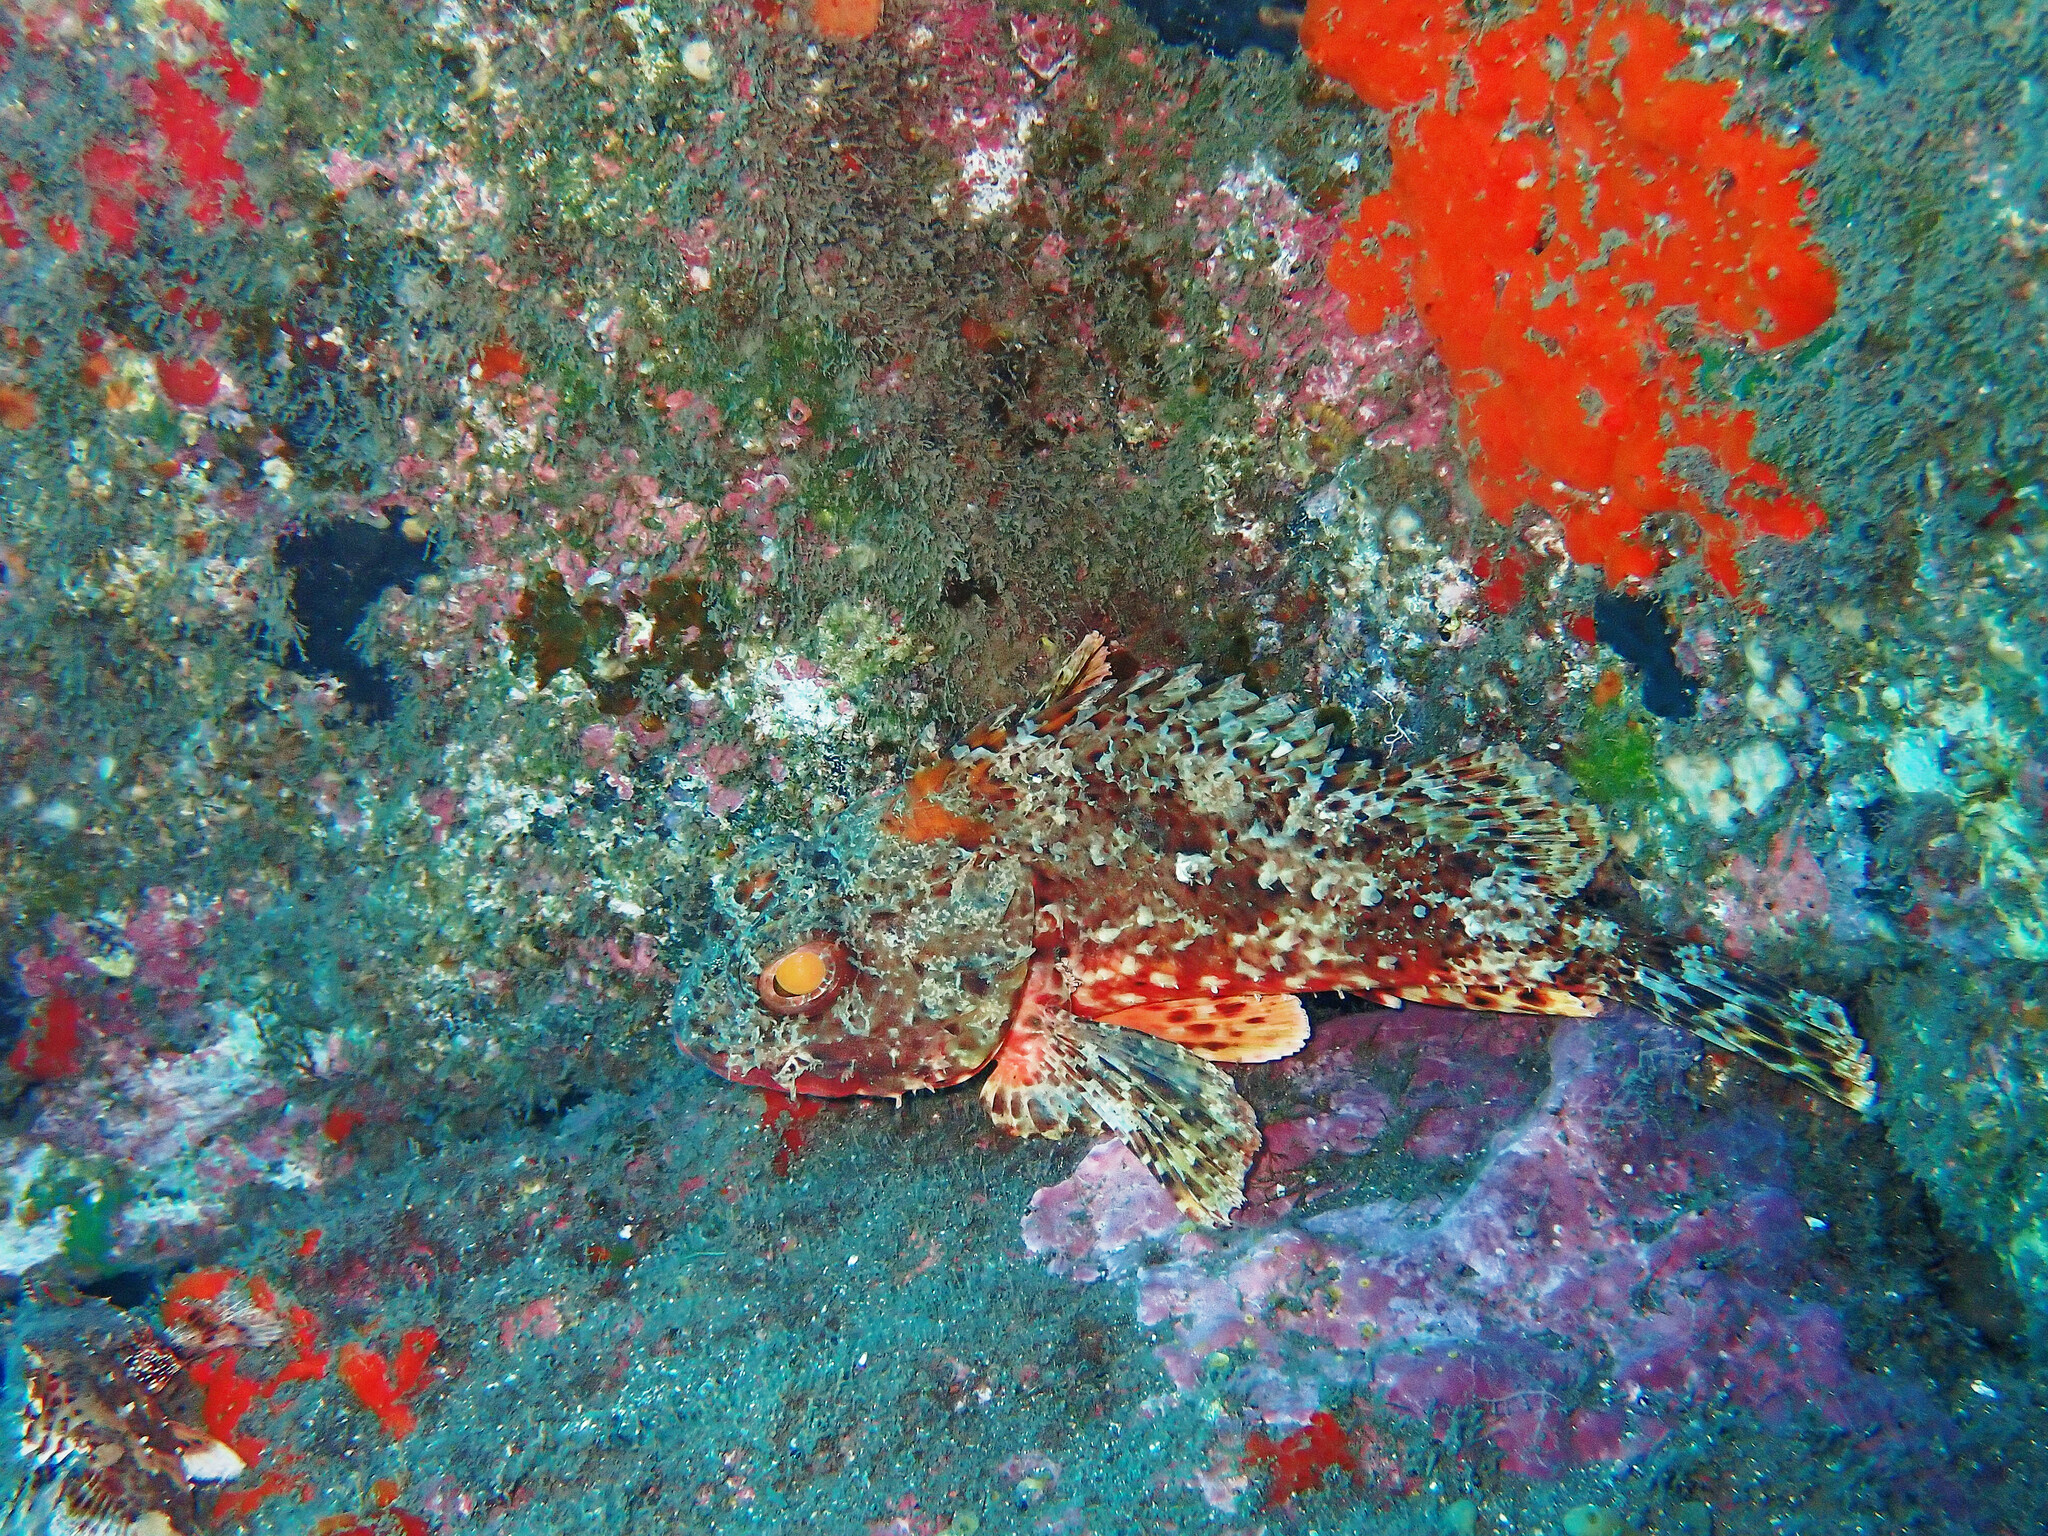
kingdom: Animalia
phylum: Chordata
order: Scorpaeniformes
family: Scorpaenidae
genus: Scorpaena
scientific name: Scorpaena notata
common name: Small red scorpionfish
